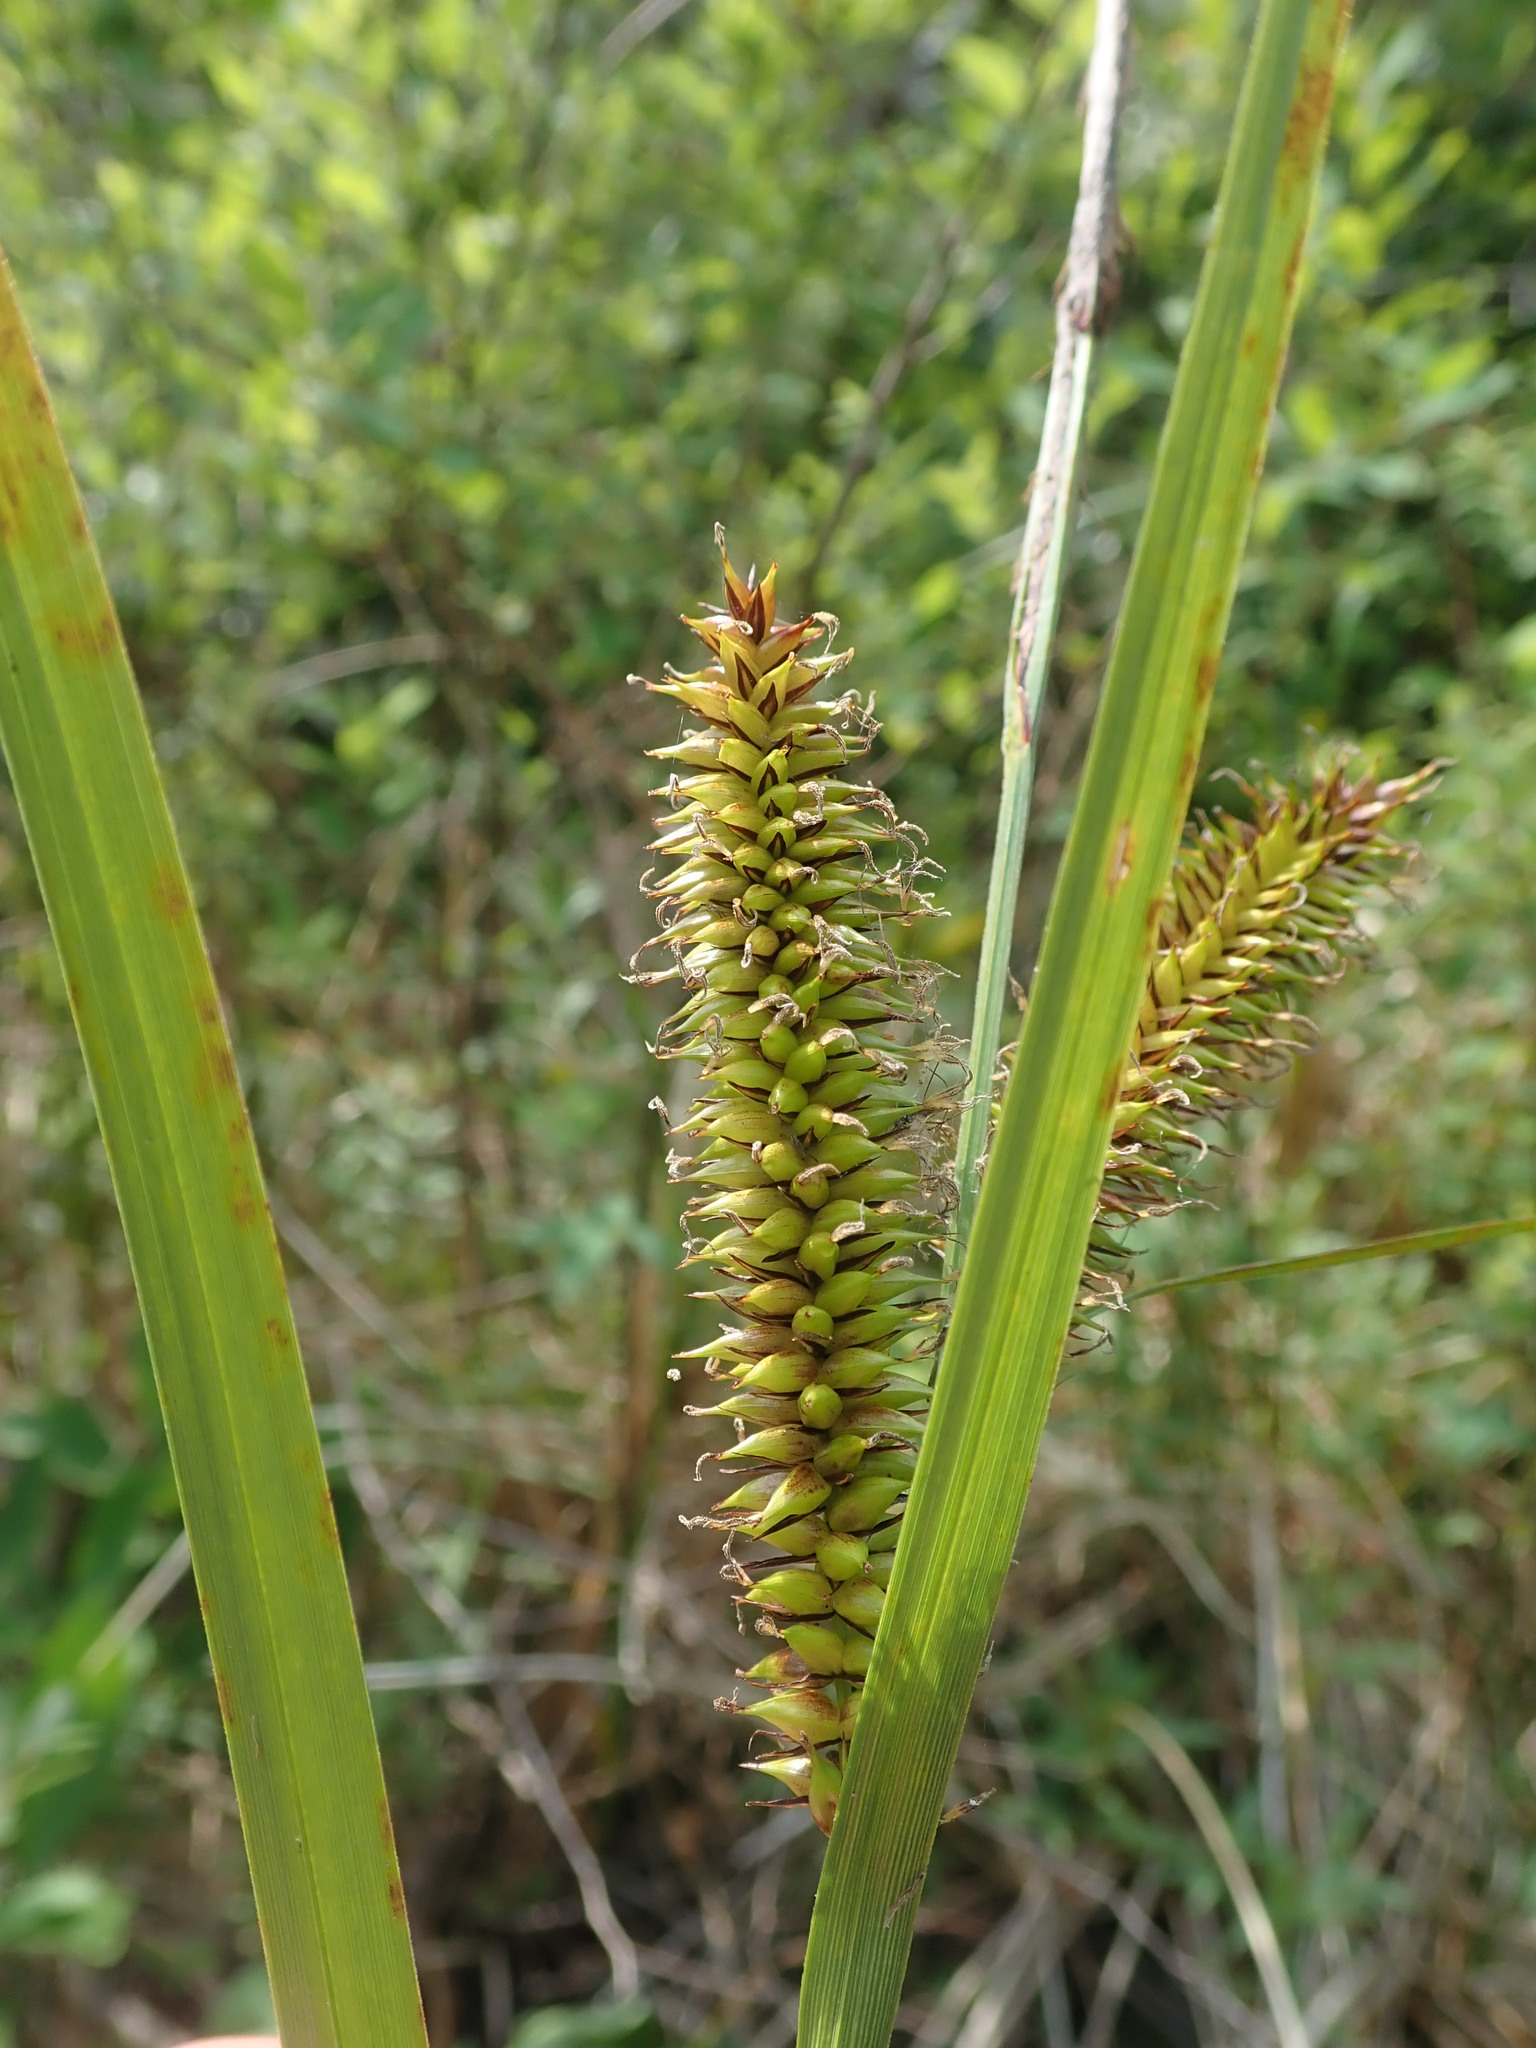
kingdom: Plantae
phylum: Tracheophyta
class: Liliopsida
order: Poales
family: Cyperaceae
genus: Carex
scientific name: Carex utriculata
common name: Beaked sedge
